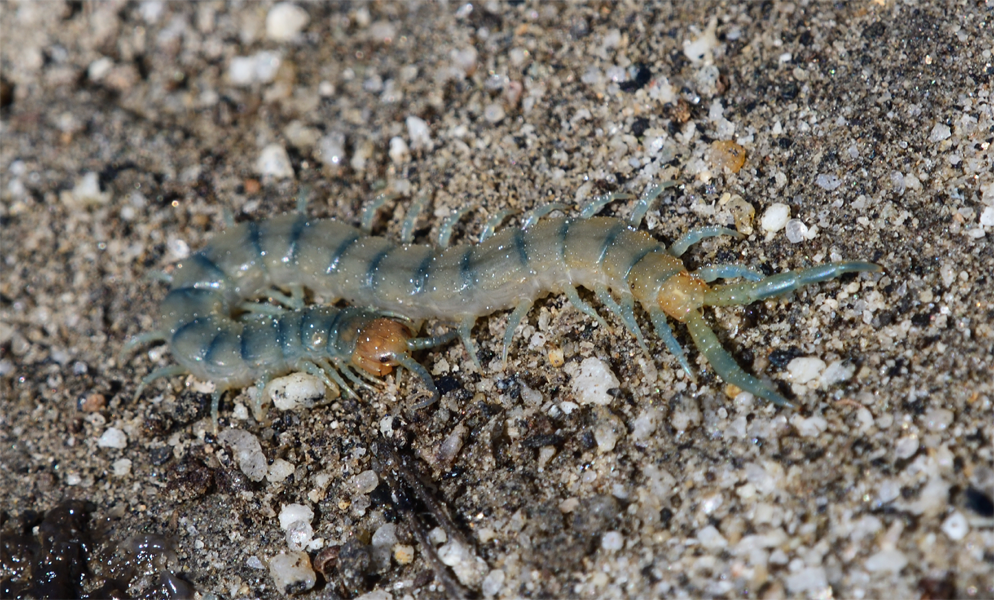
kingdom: Animalia
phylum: Arthropoda
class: Chilopoda
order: Scolopendromorpha
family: Scolopendridae
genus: Scolopendra
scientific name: Scolopendra polymorpha
